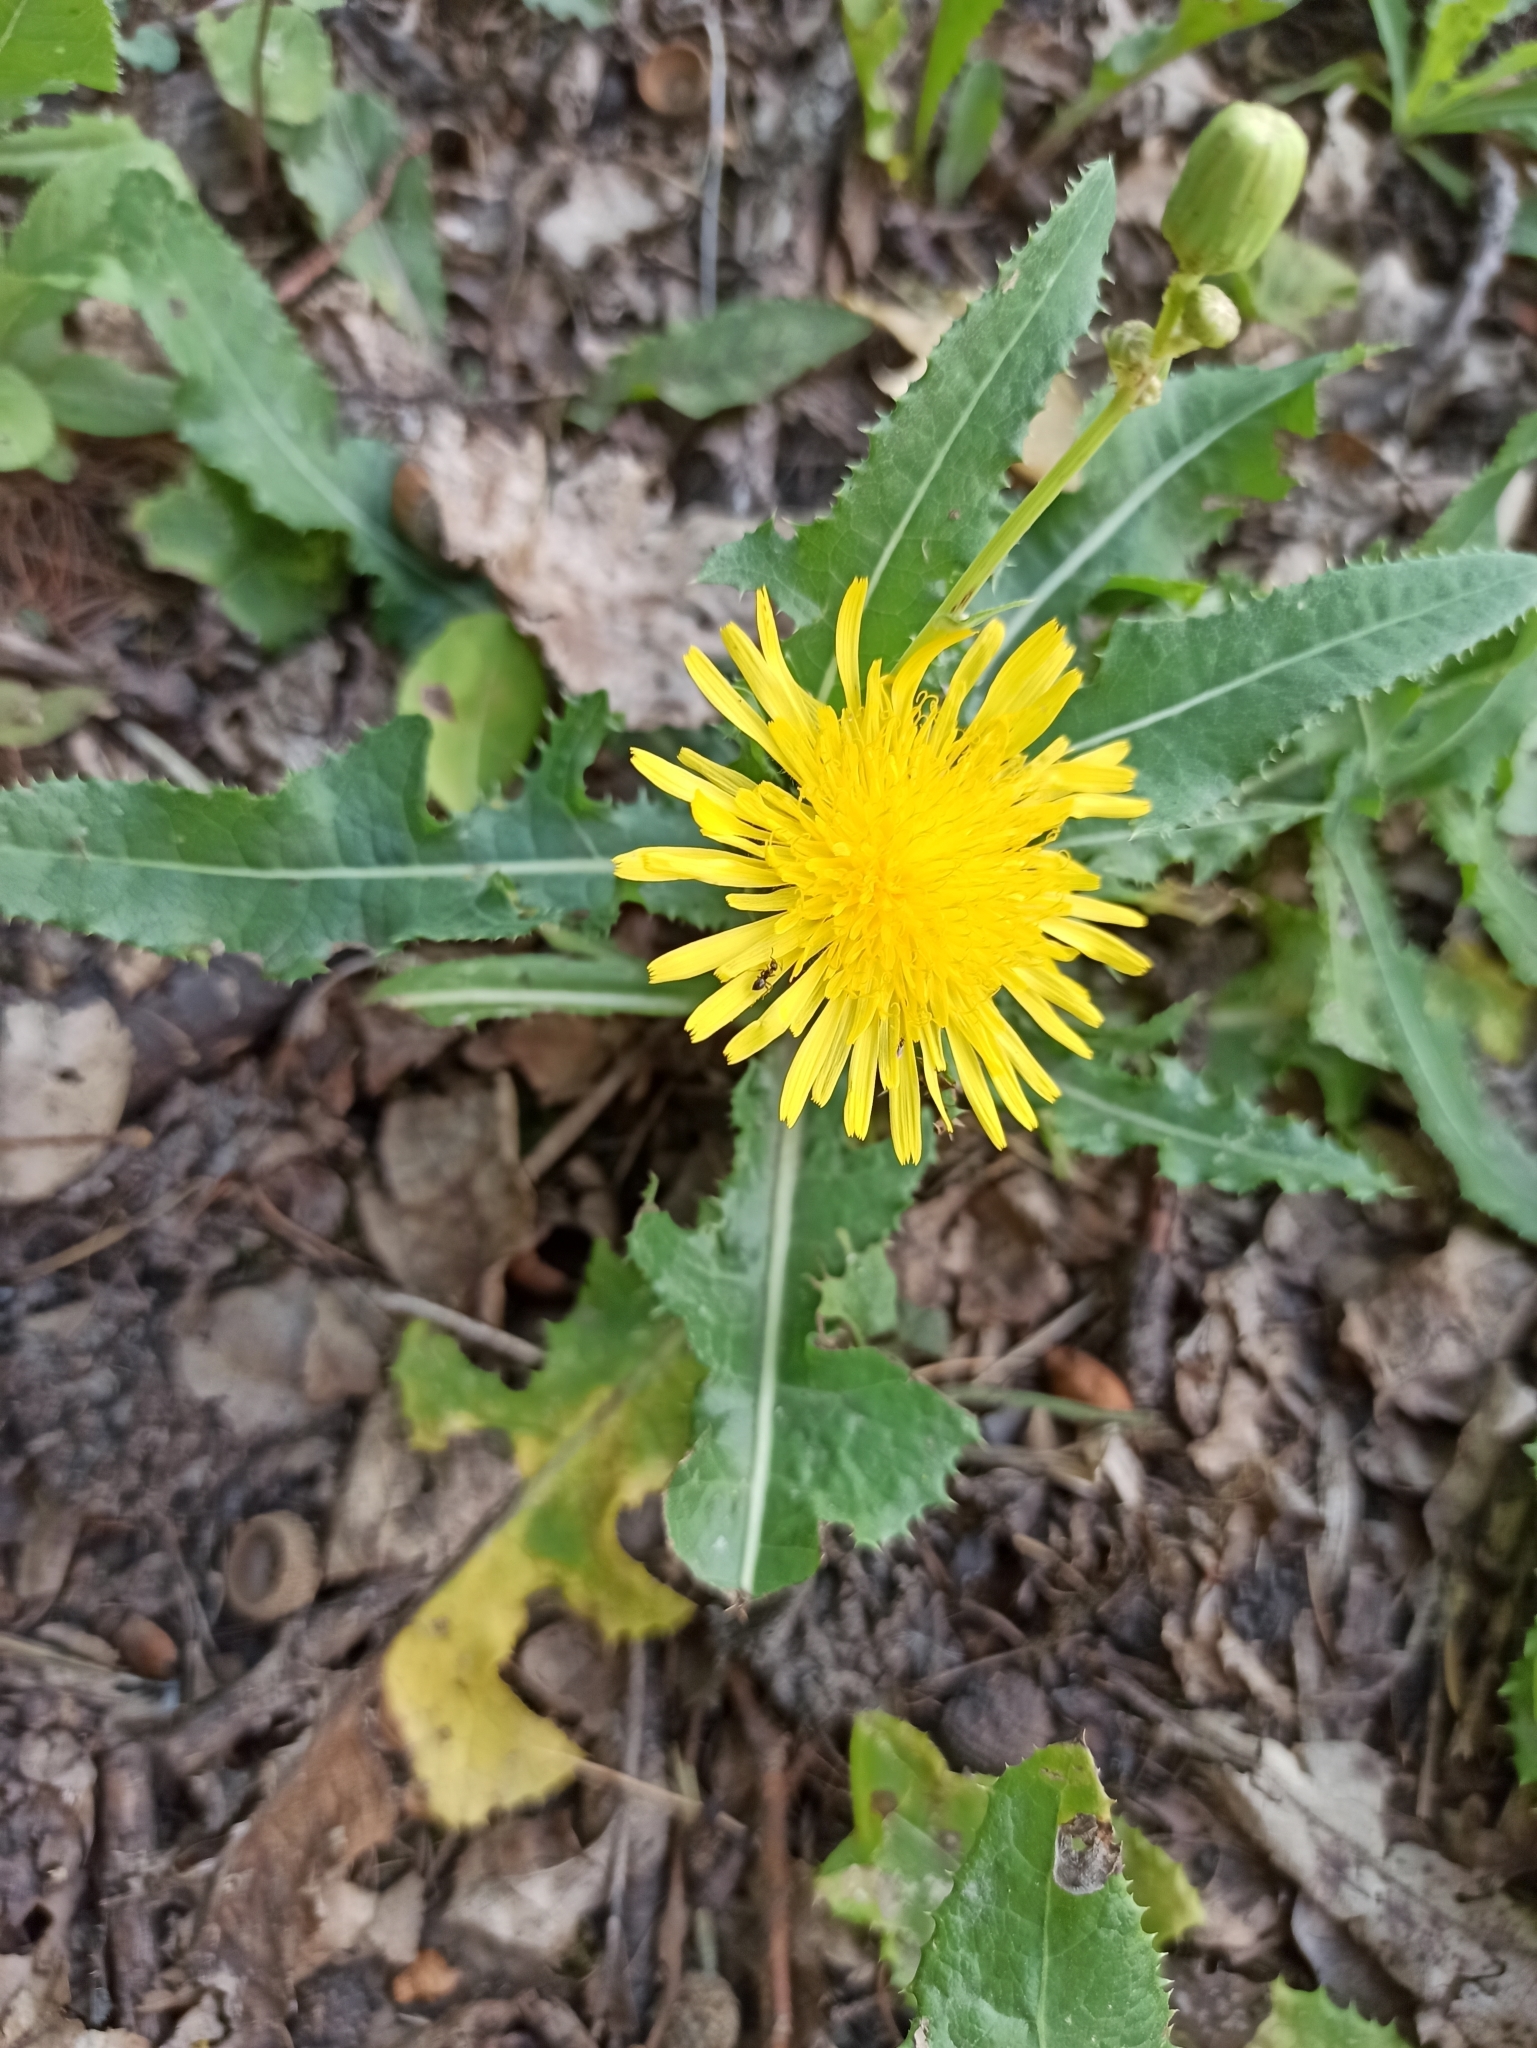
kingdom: Plantae
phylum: Tracheophyta
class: Magnoliopsida
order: Asterales
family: Asteraceae
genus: Sonchus
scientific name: Sonchus arvensis
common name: Perennial sow-thistle
